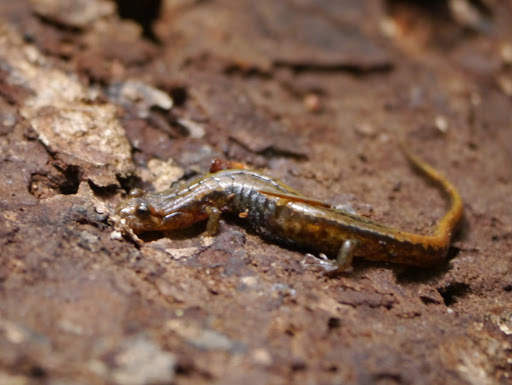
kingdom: Animalia
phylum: Chordata
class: Amphibia
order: Caudata
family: Plethodontidae
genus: Desmognathus
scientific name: Desmognathus ochrophaeus
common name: Allegheny mountain dusky salamander
